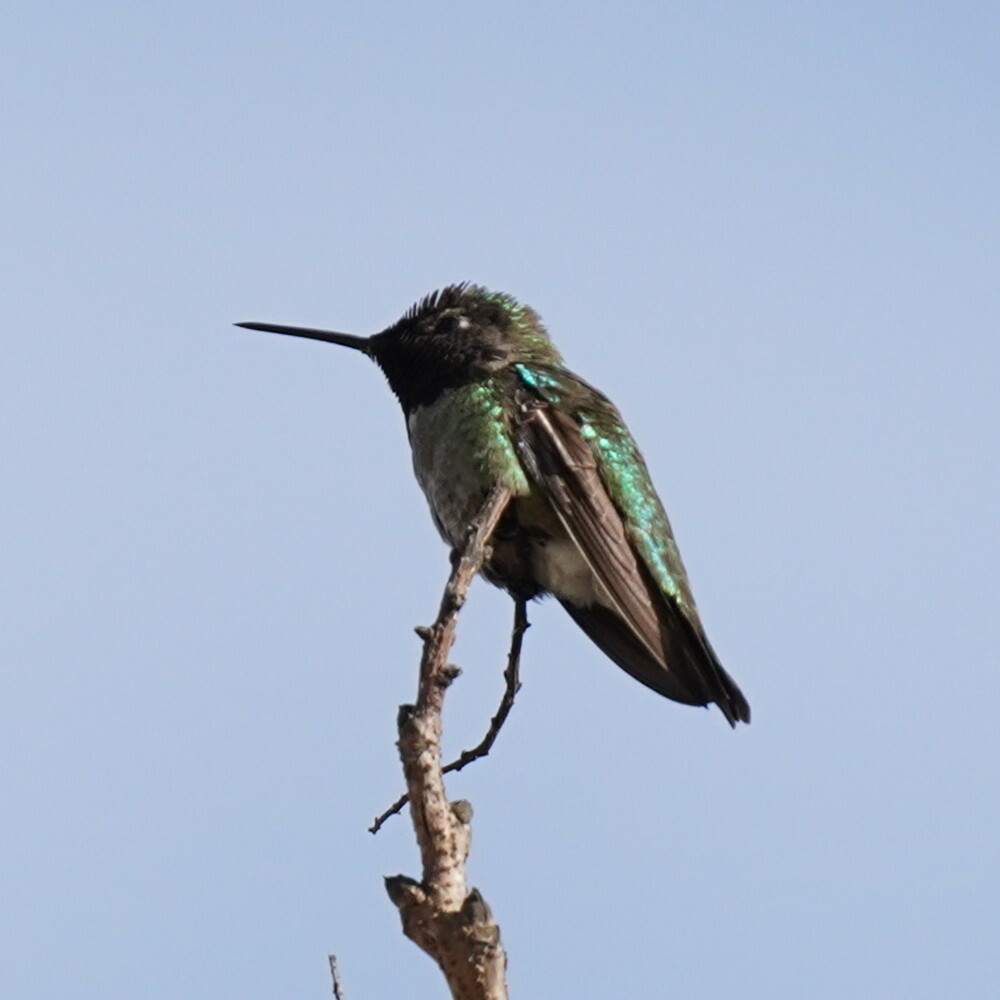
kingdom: Animalia
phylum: Chordata
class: Aves
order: Apodiformes
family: Trochilidae
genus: Calypte
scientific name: Calypte anna
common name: Anna's hummingbird
